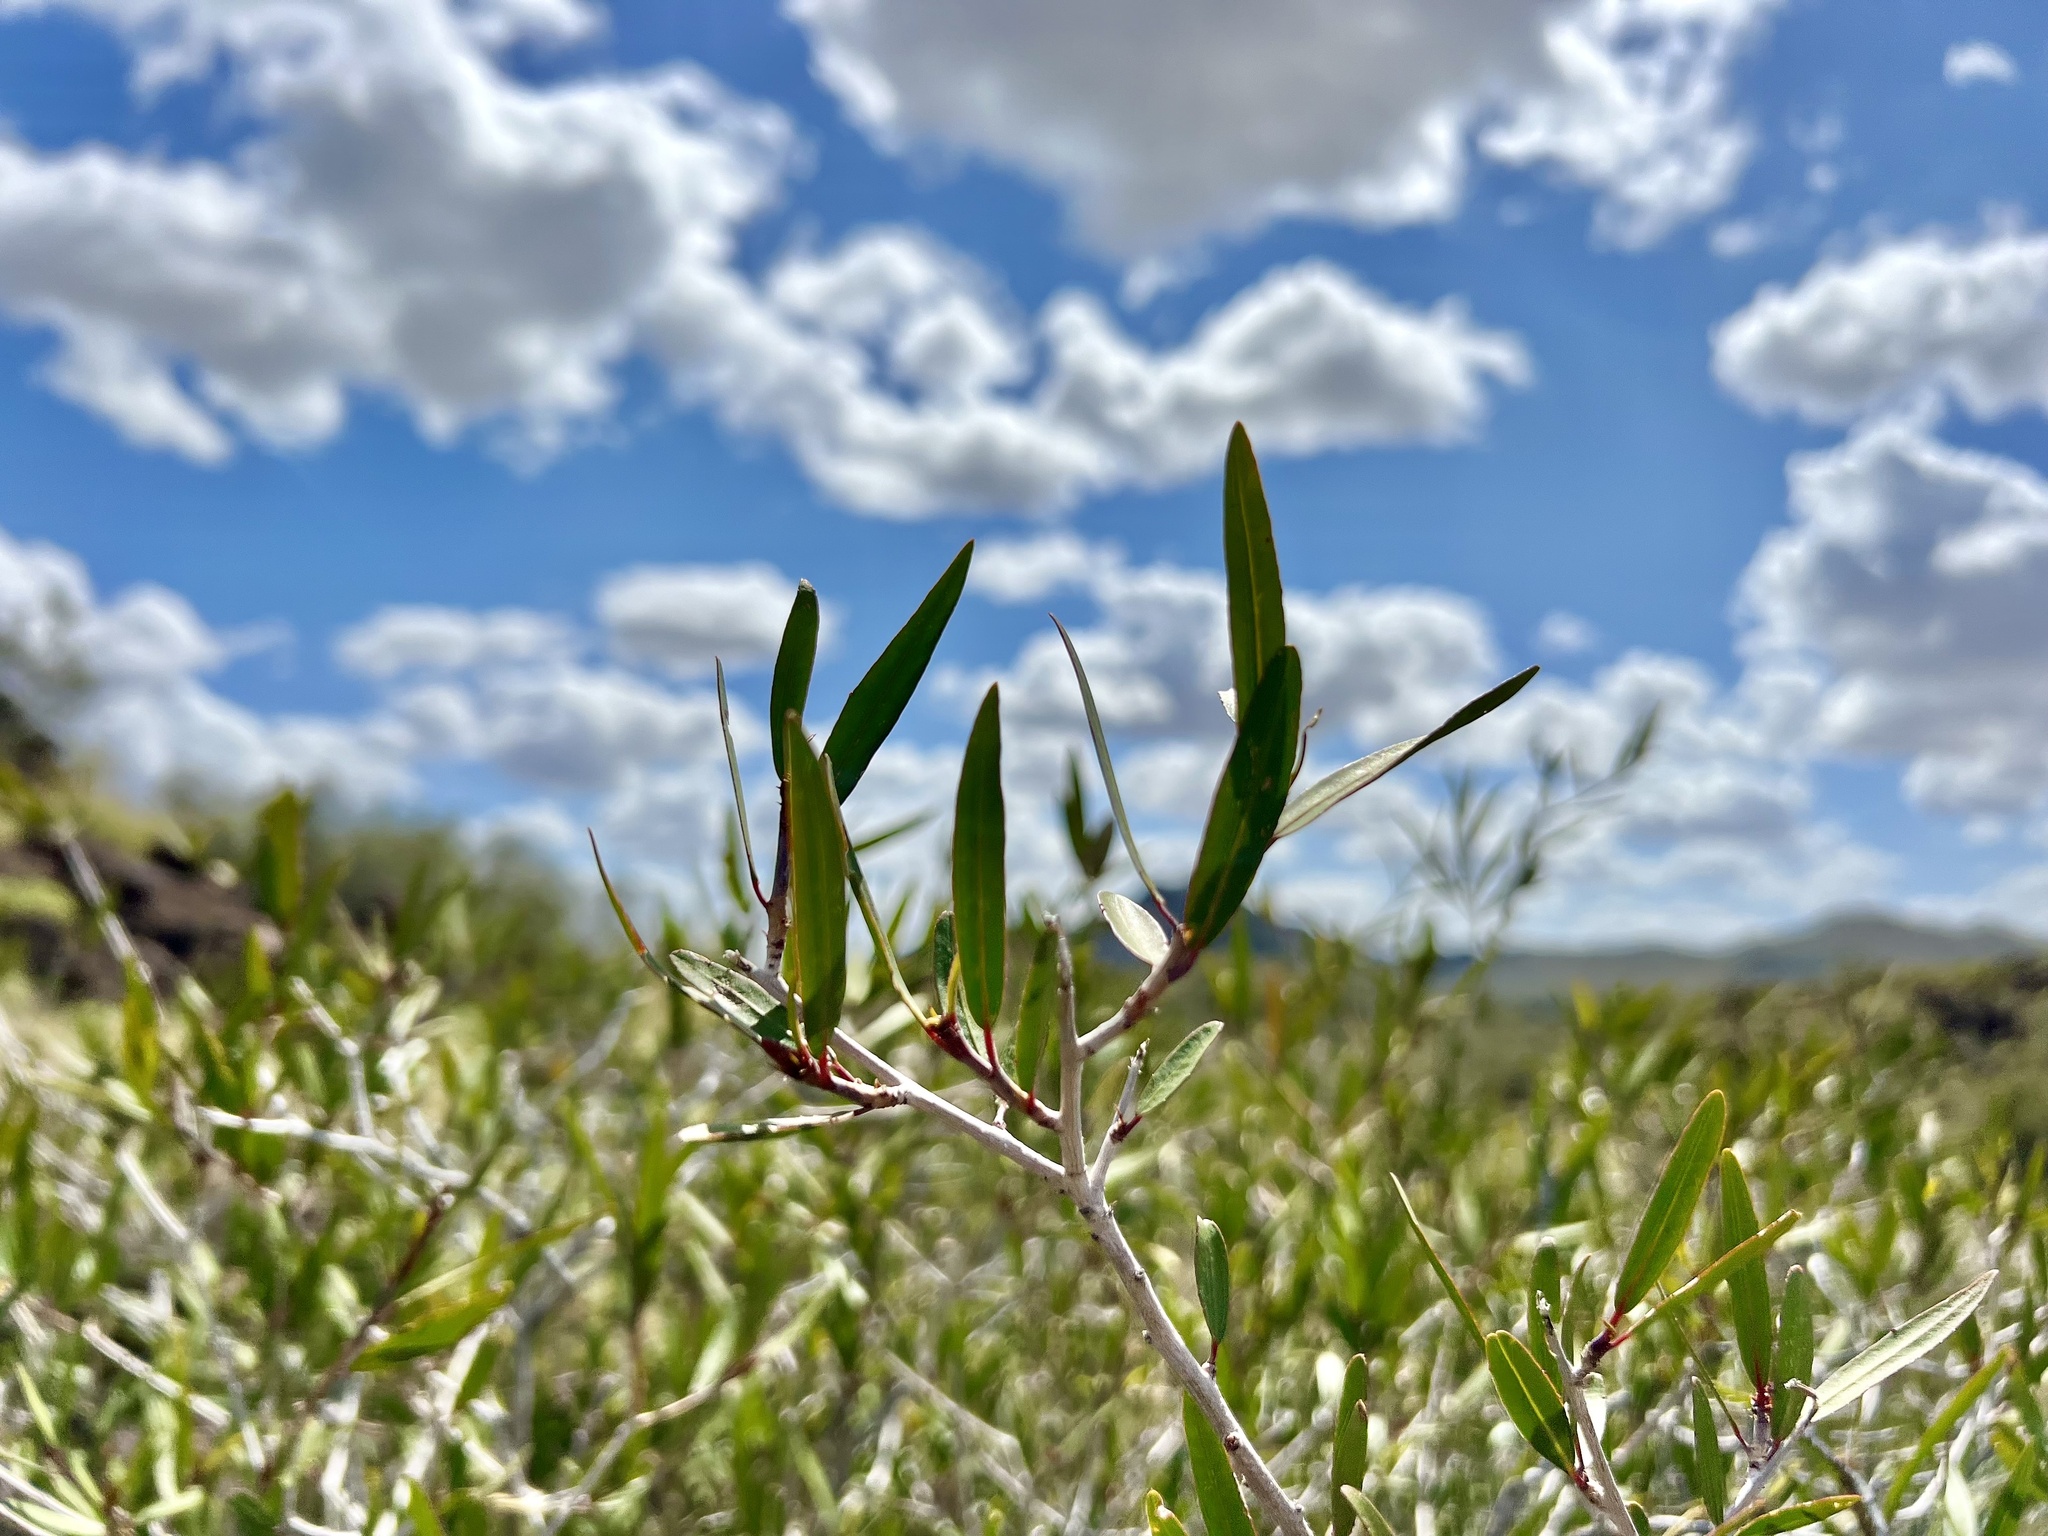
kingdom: Plantae
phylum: Tracheophyta
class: Magnoliopsida
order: Malpighiales
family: Euphorbiaceae
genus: Pleradenophora
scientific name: Pleradenophora bilocularis
